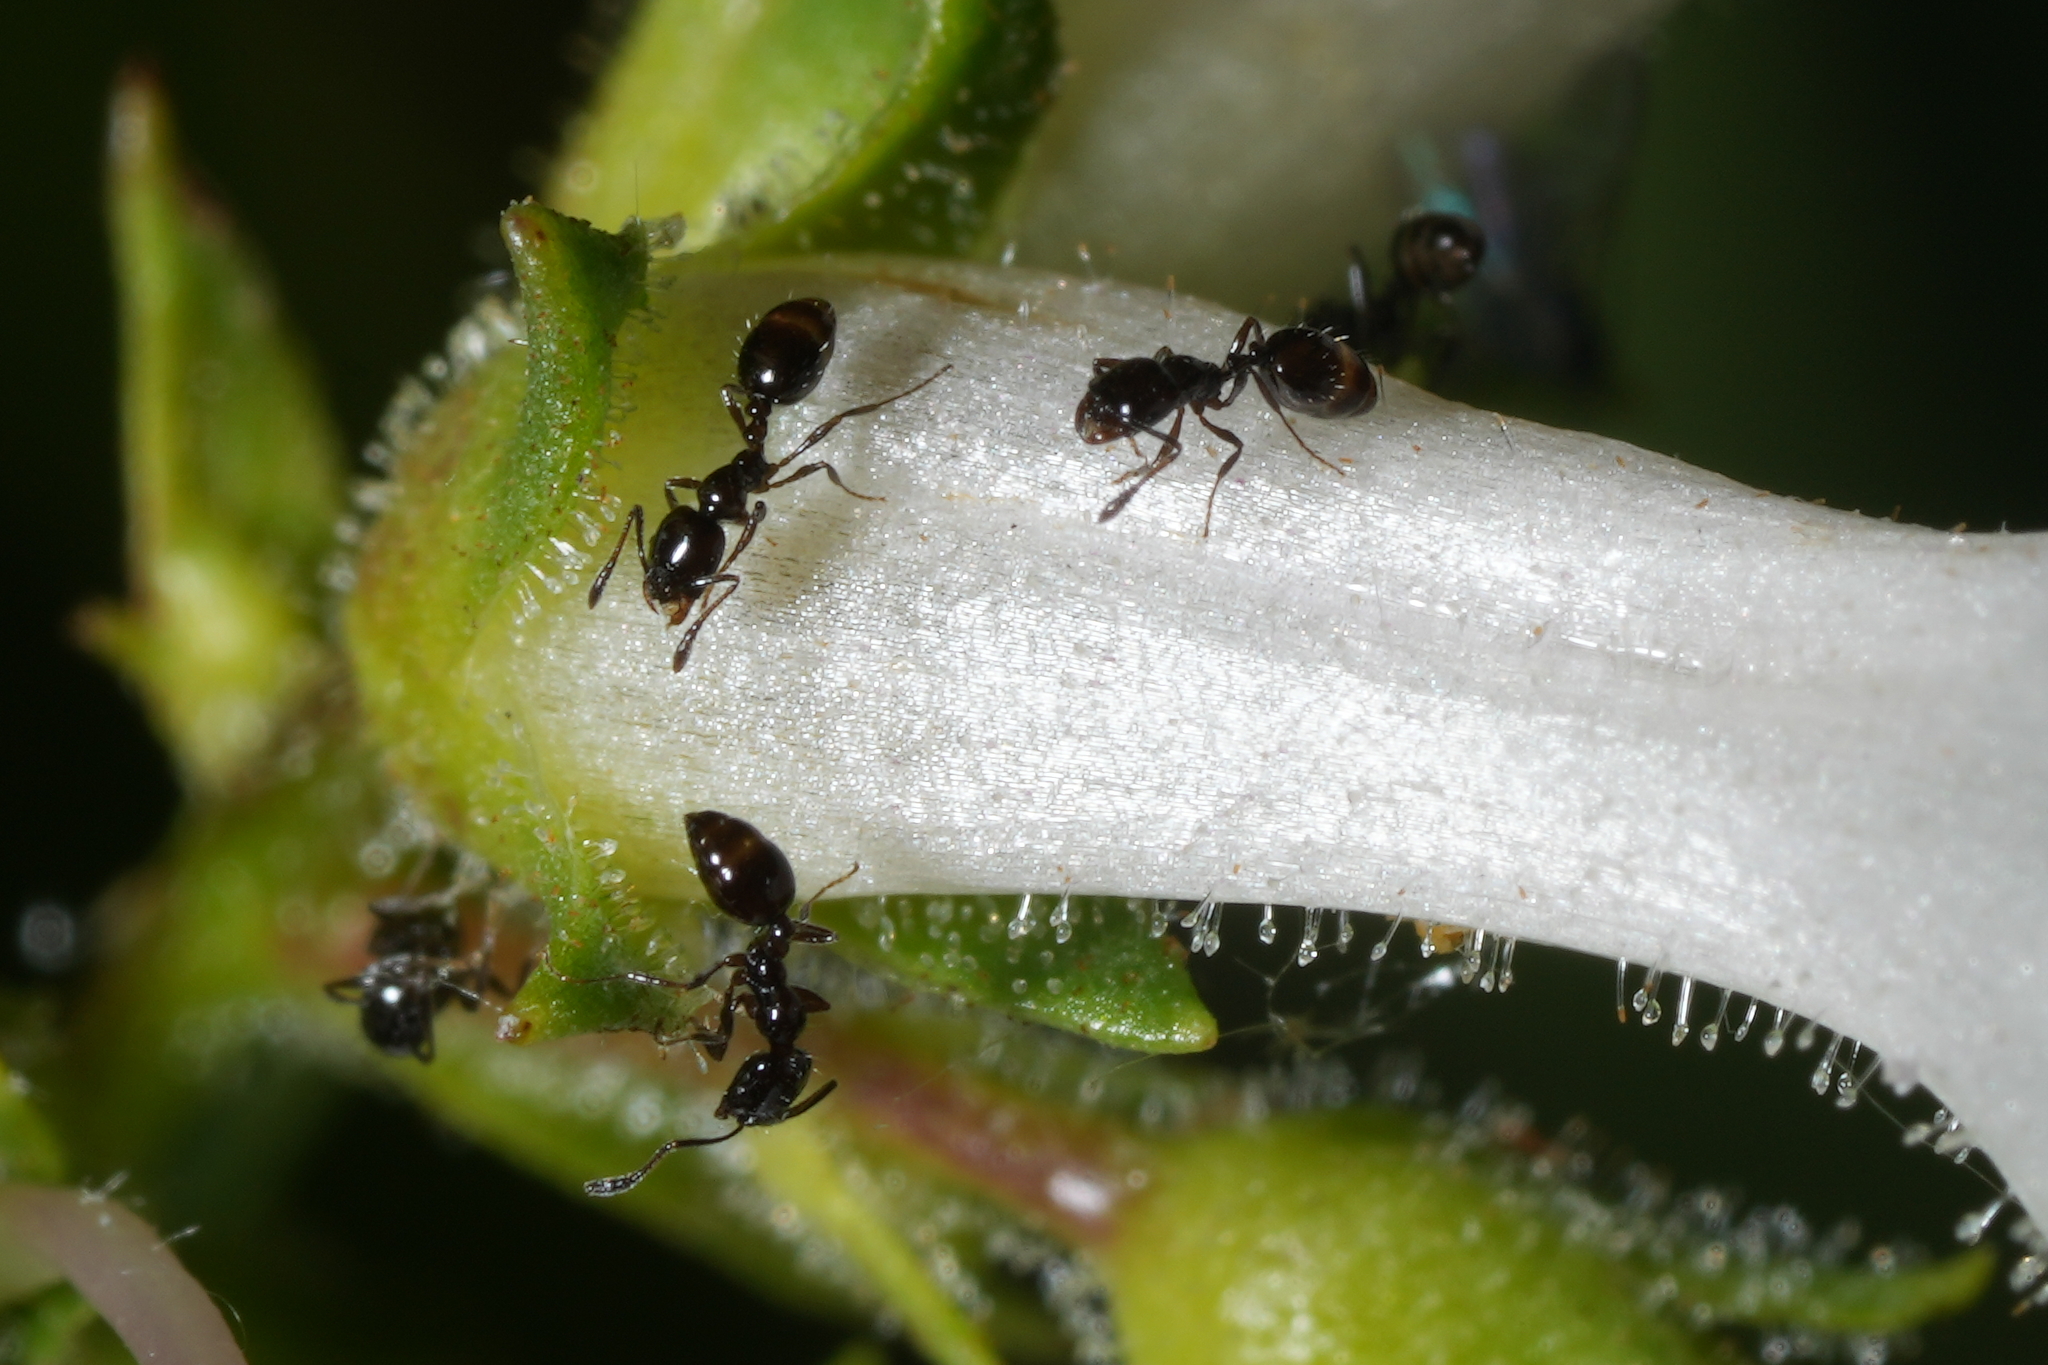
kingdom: Animalia
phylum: Arthropoda
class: Insecta
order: Hymenoptera
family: Formicidae
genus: Monomorium
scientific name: Monomorium minimum
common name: Little black ant
